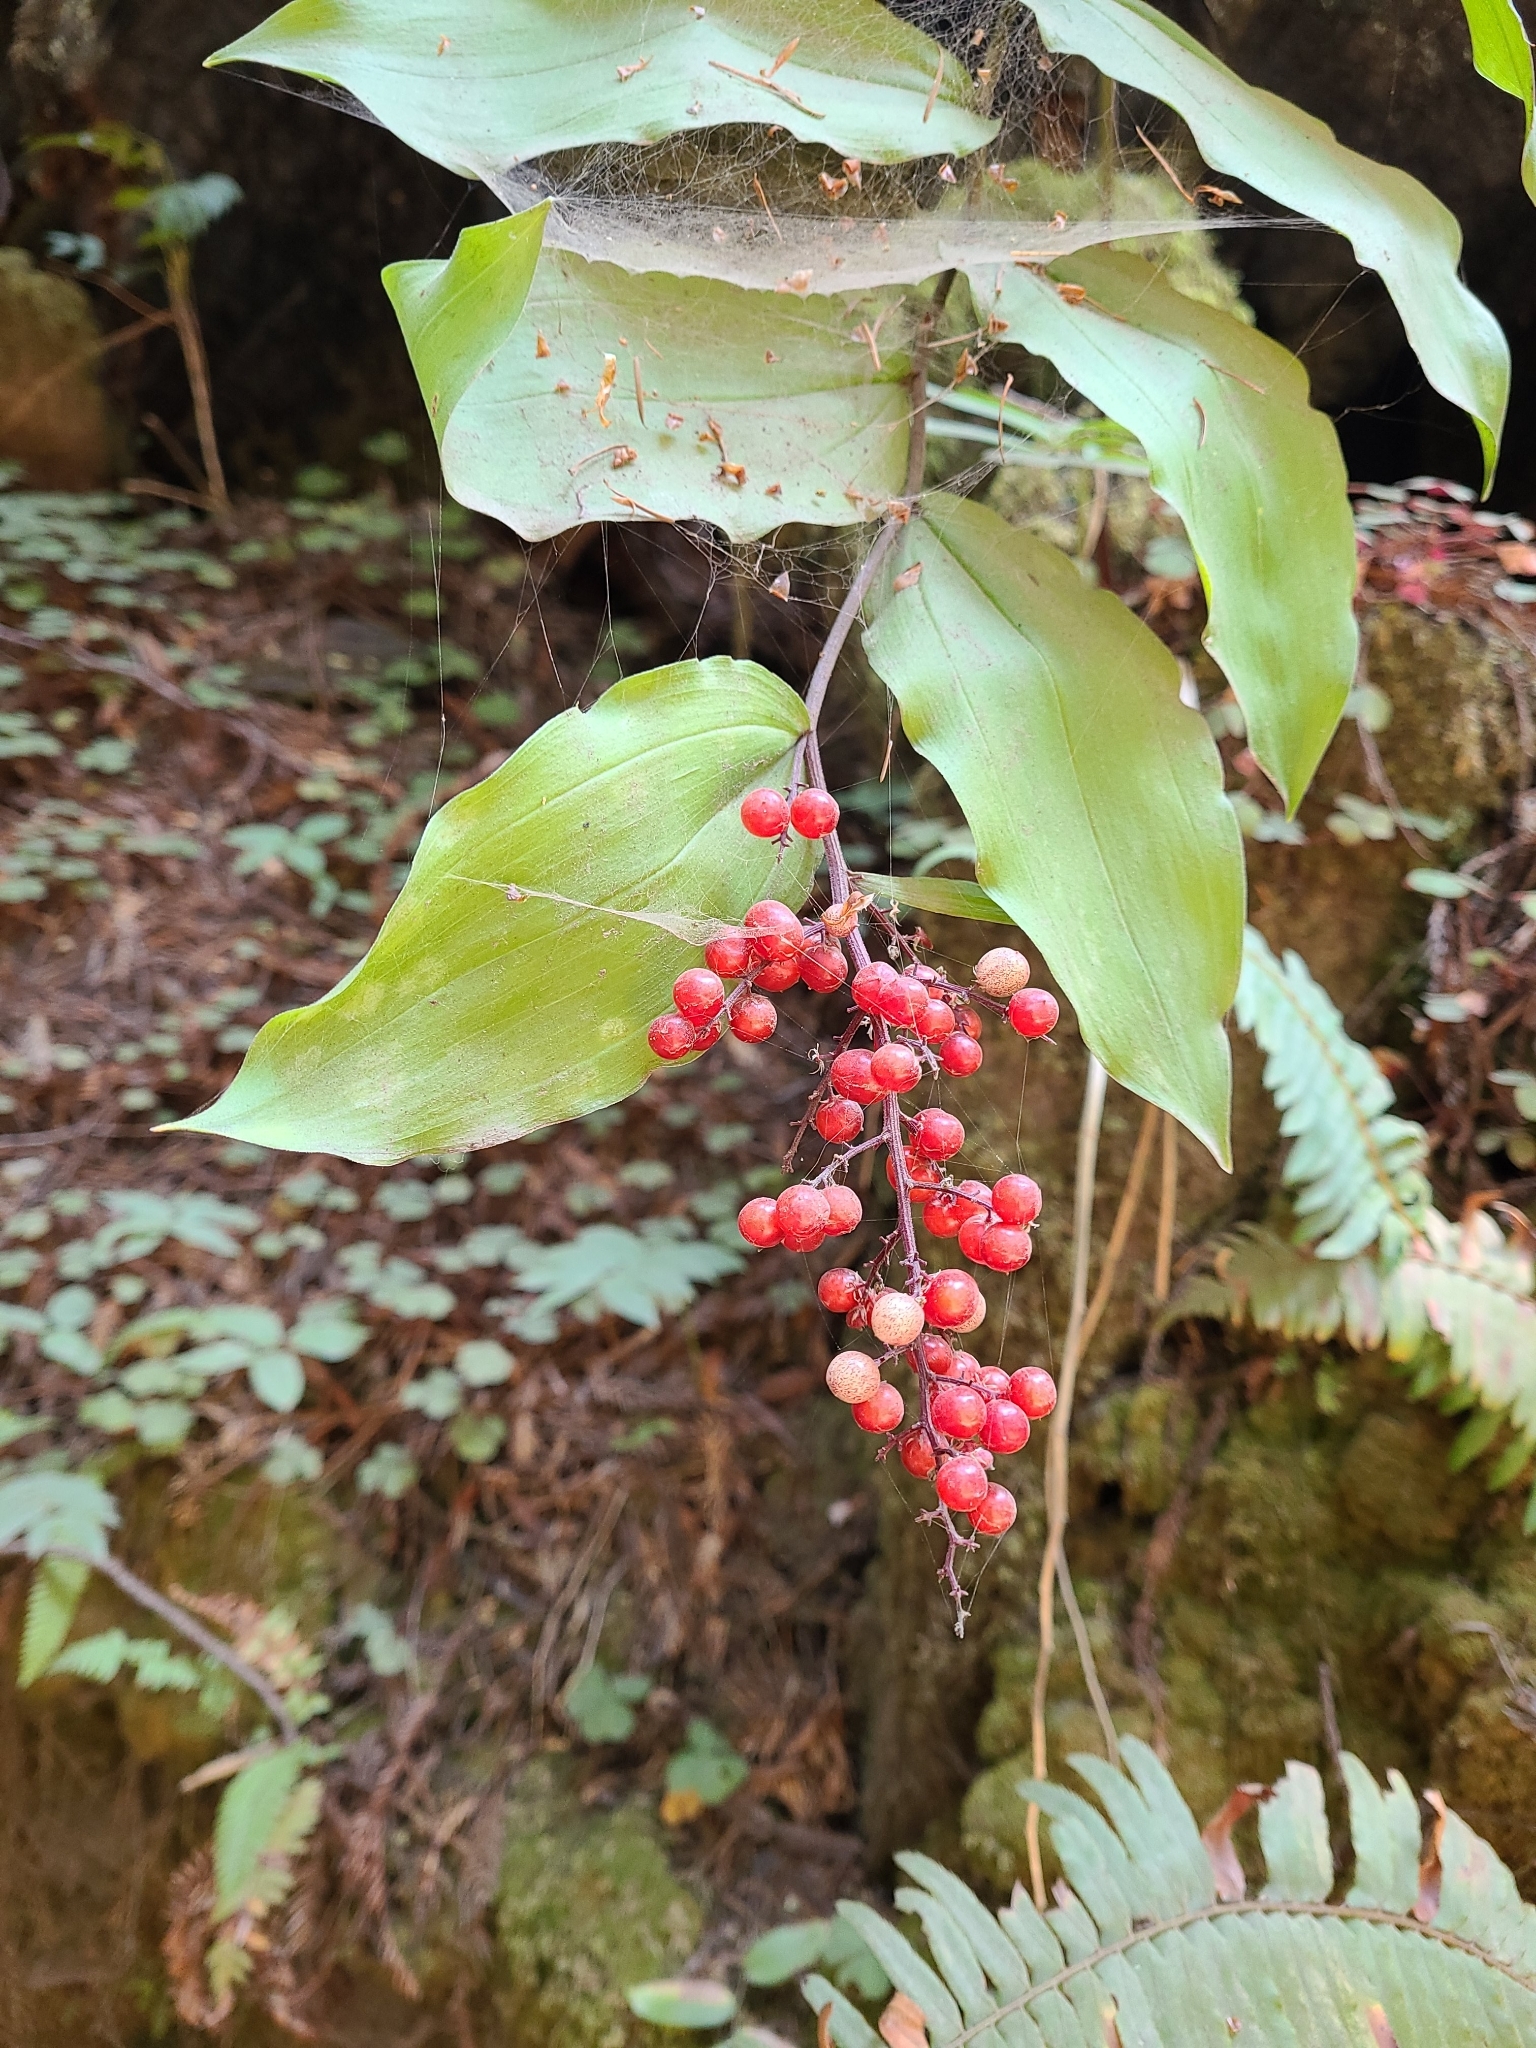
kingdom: Plantae
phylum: Tracheophyta
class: Liliopsida
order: Asparagales
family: Asparagaceae
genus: Maianthemum
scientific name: Maianthemum racemosum
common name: False spikenard
